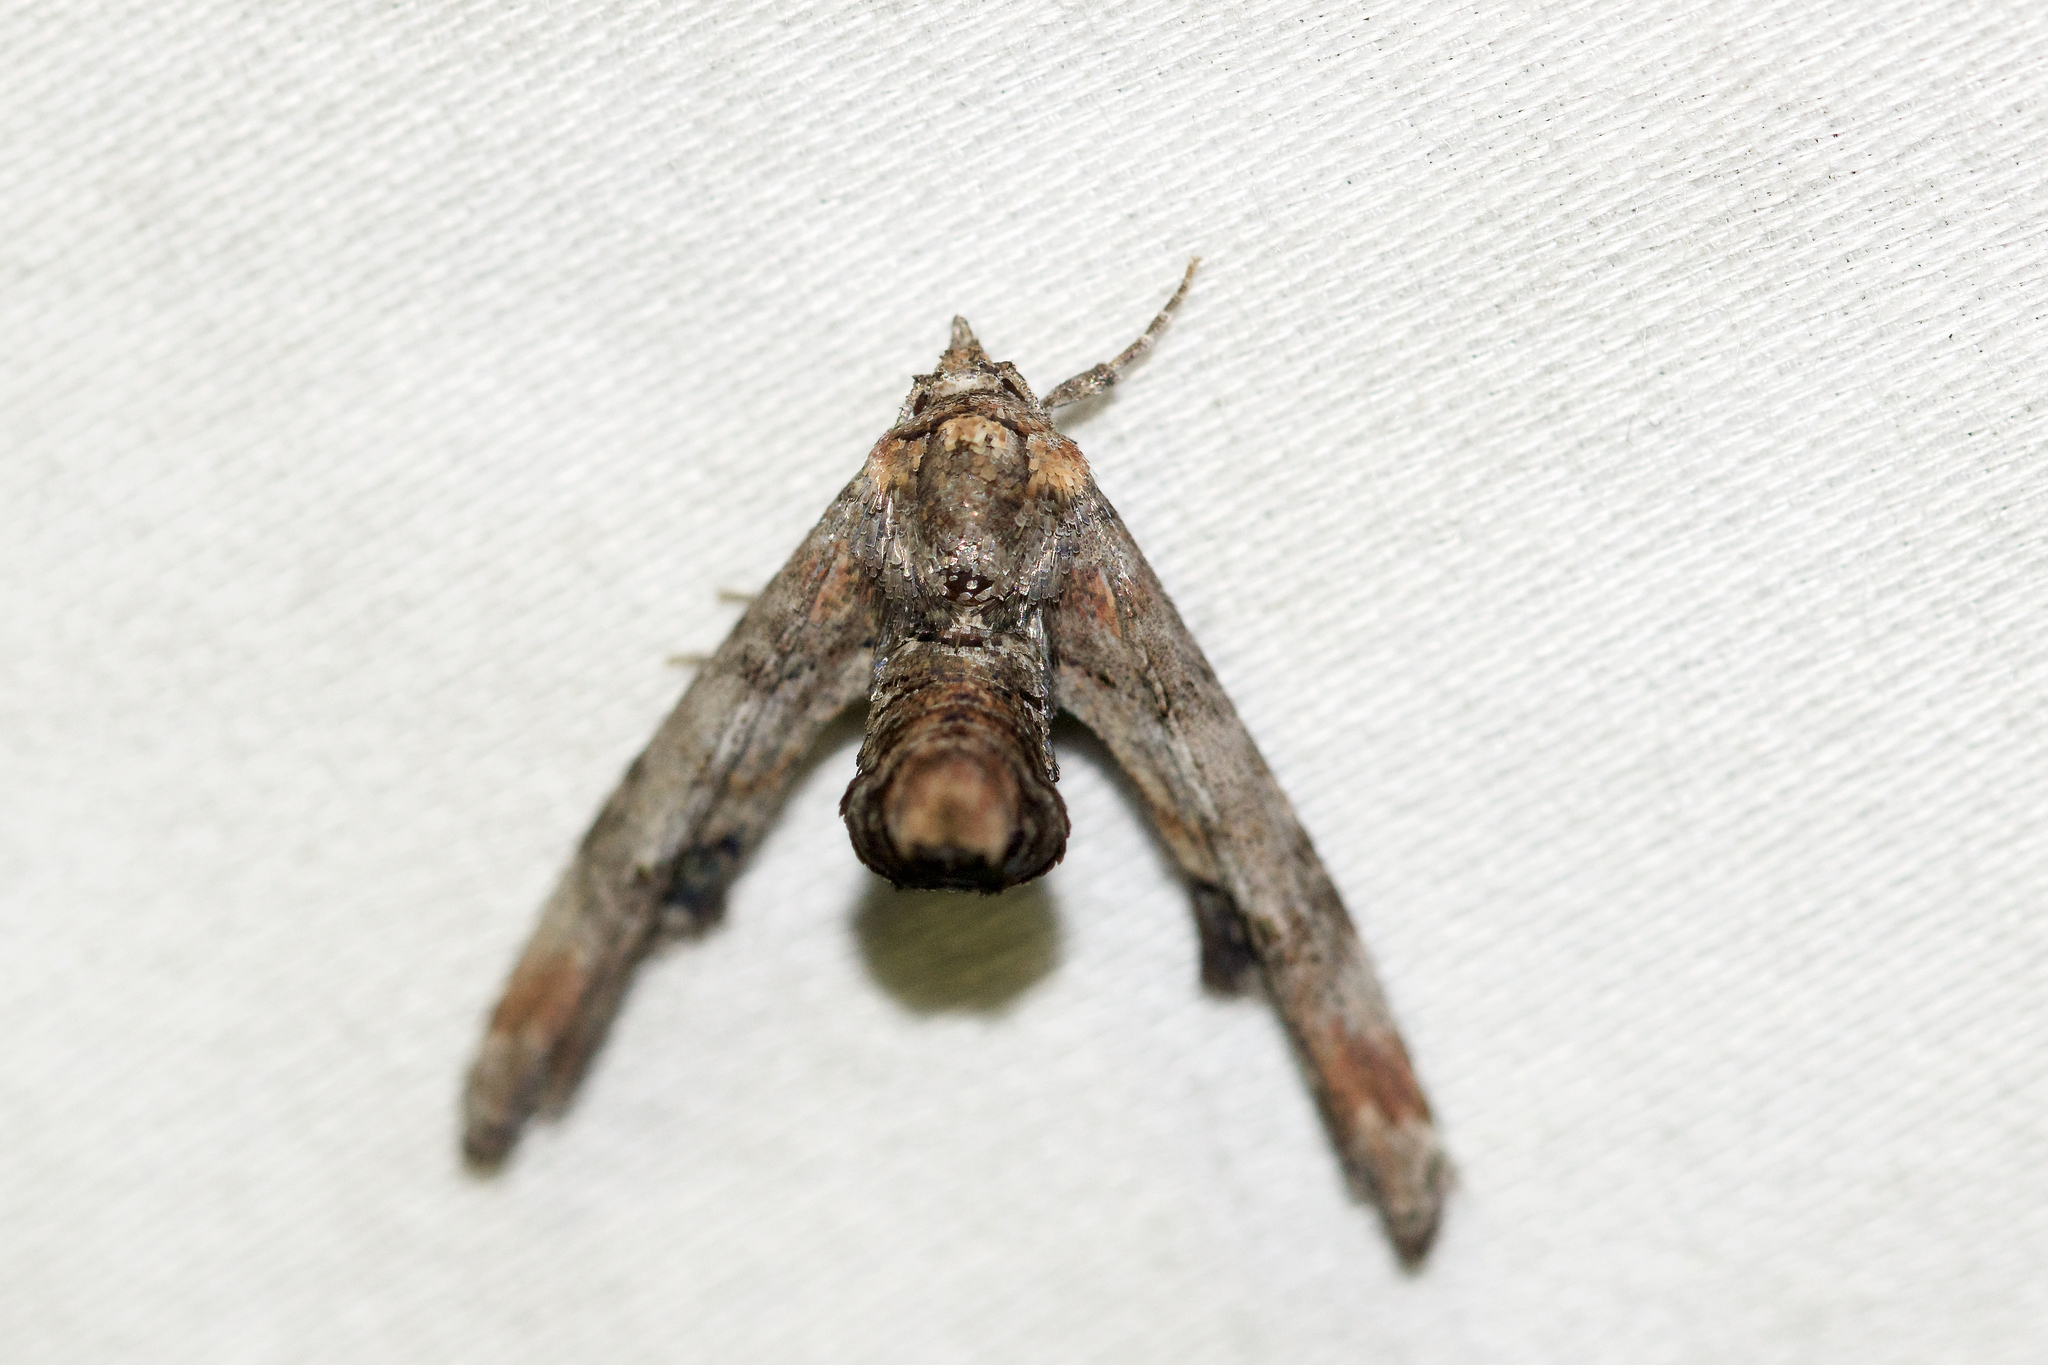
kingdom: Animalia
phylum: Arthropoda
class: Insecta
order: Lepidoptera
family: Euteliidae
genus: Marathyssa
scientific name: Marathyssa inficita
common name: Dark marathyssa moth
